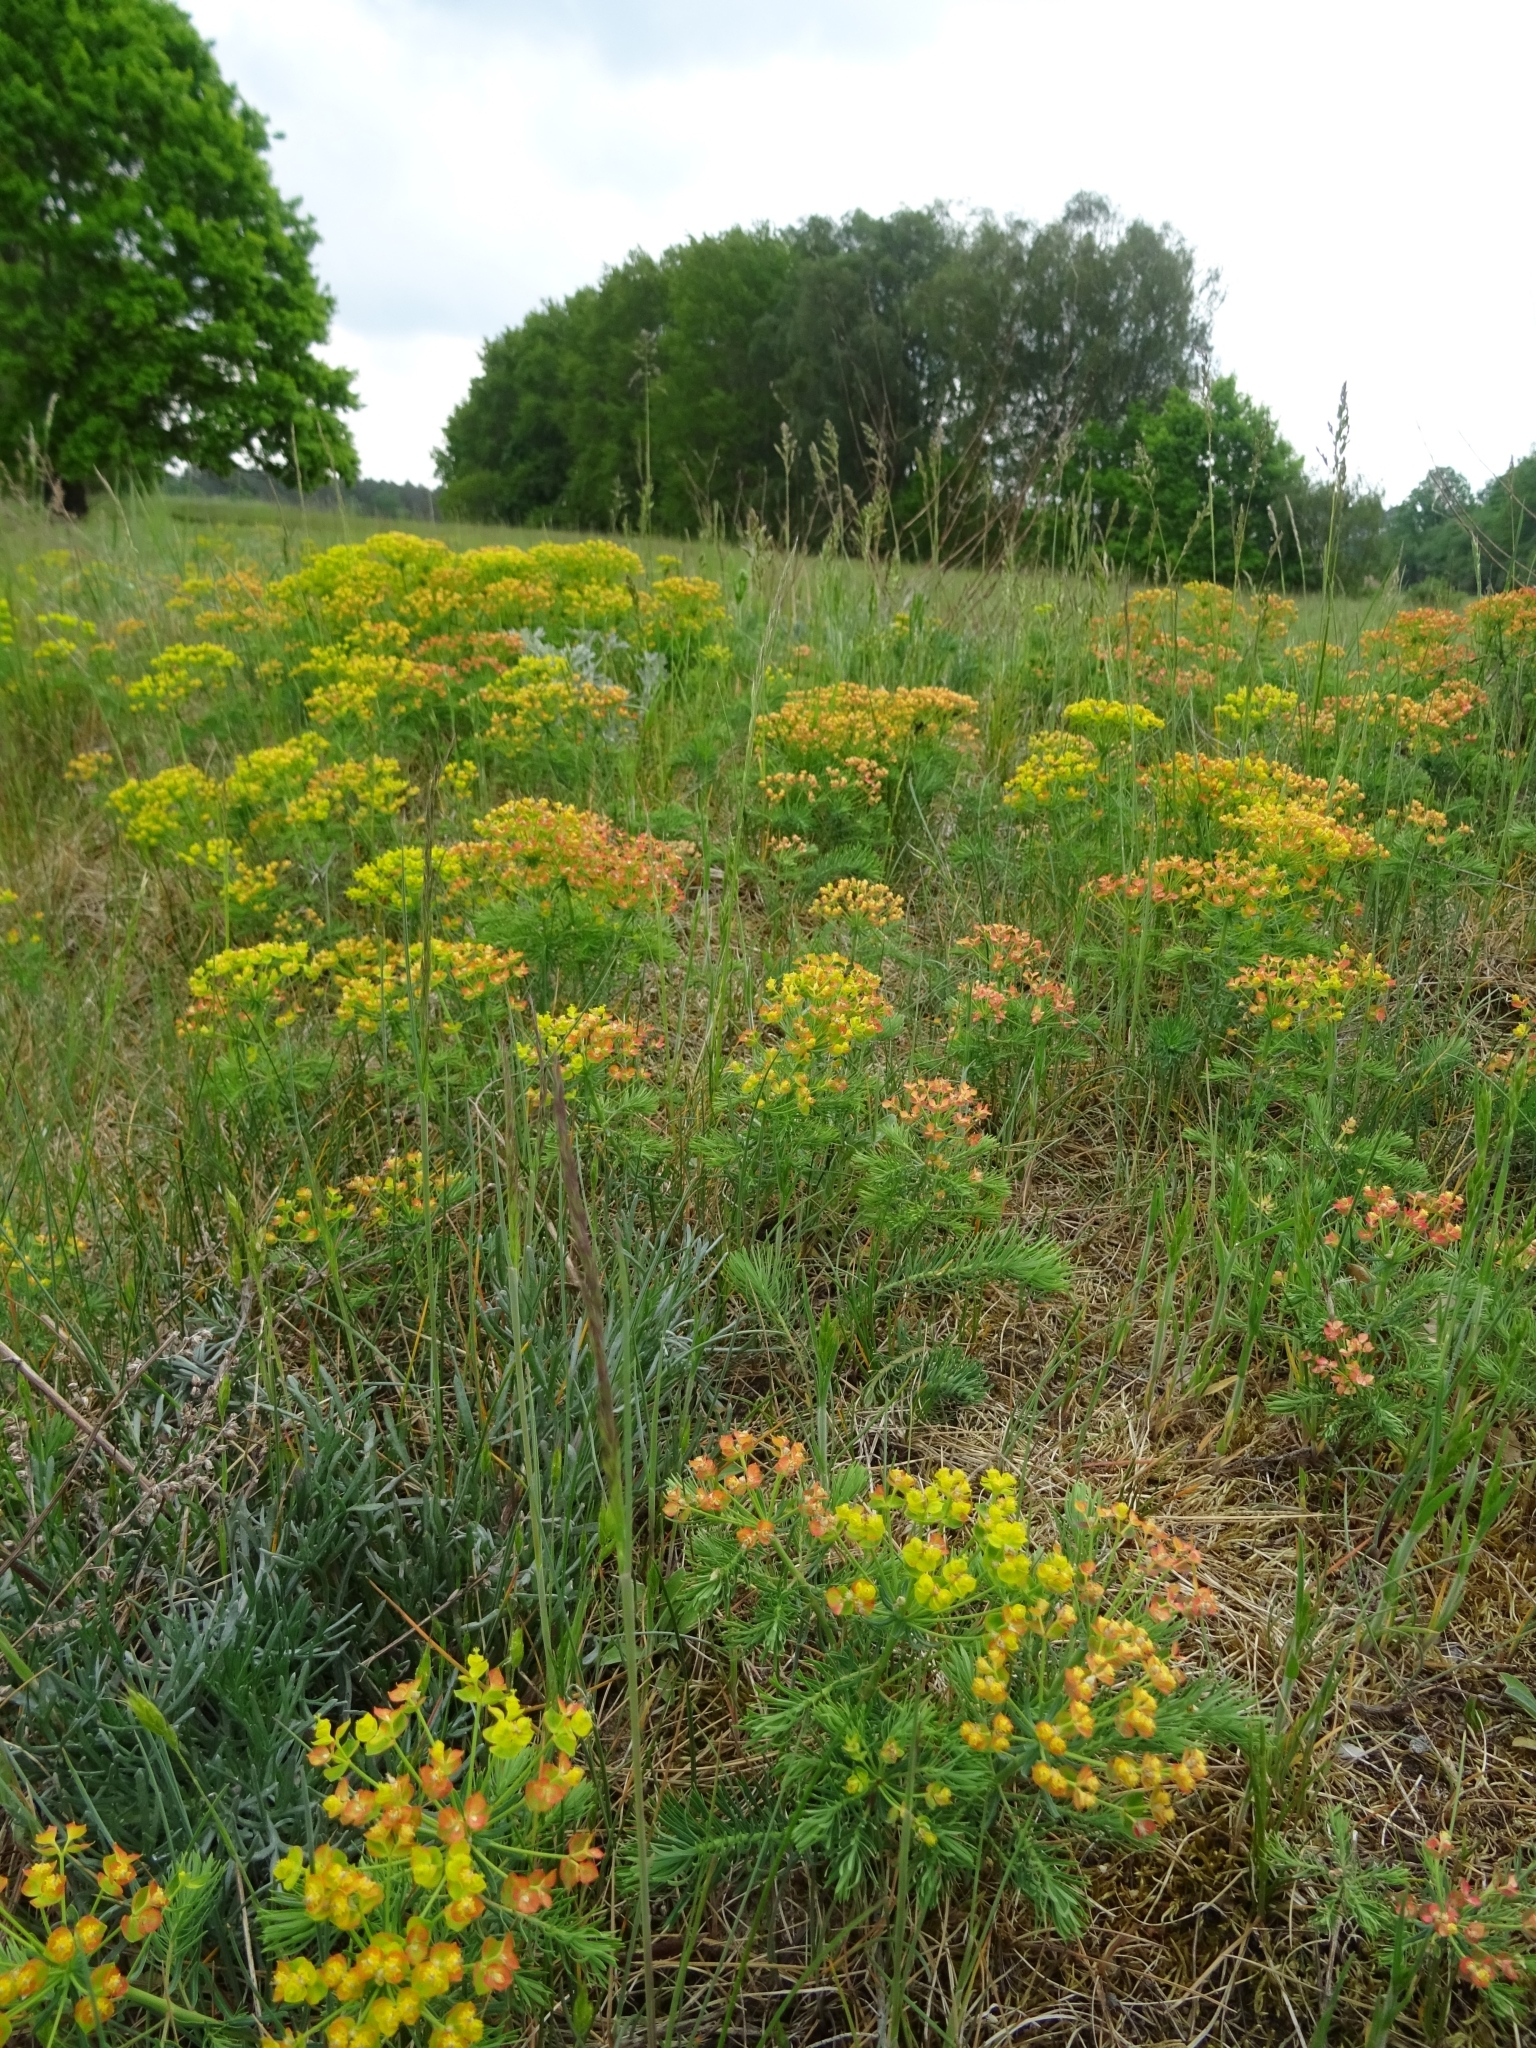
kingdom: Plantae
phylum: Tracheophyta
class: Magnoliopsida
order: Malpighiales
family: Euphorbiaceae
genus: Euphorbia
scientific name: Euphorbia cyparissias
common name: Cypress spurge
